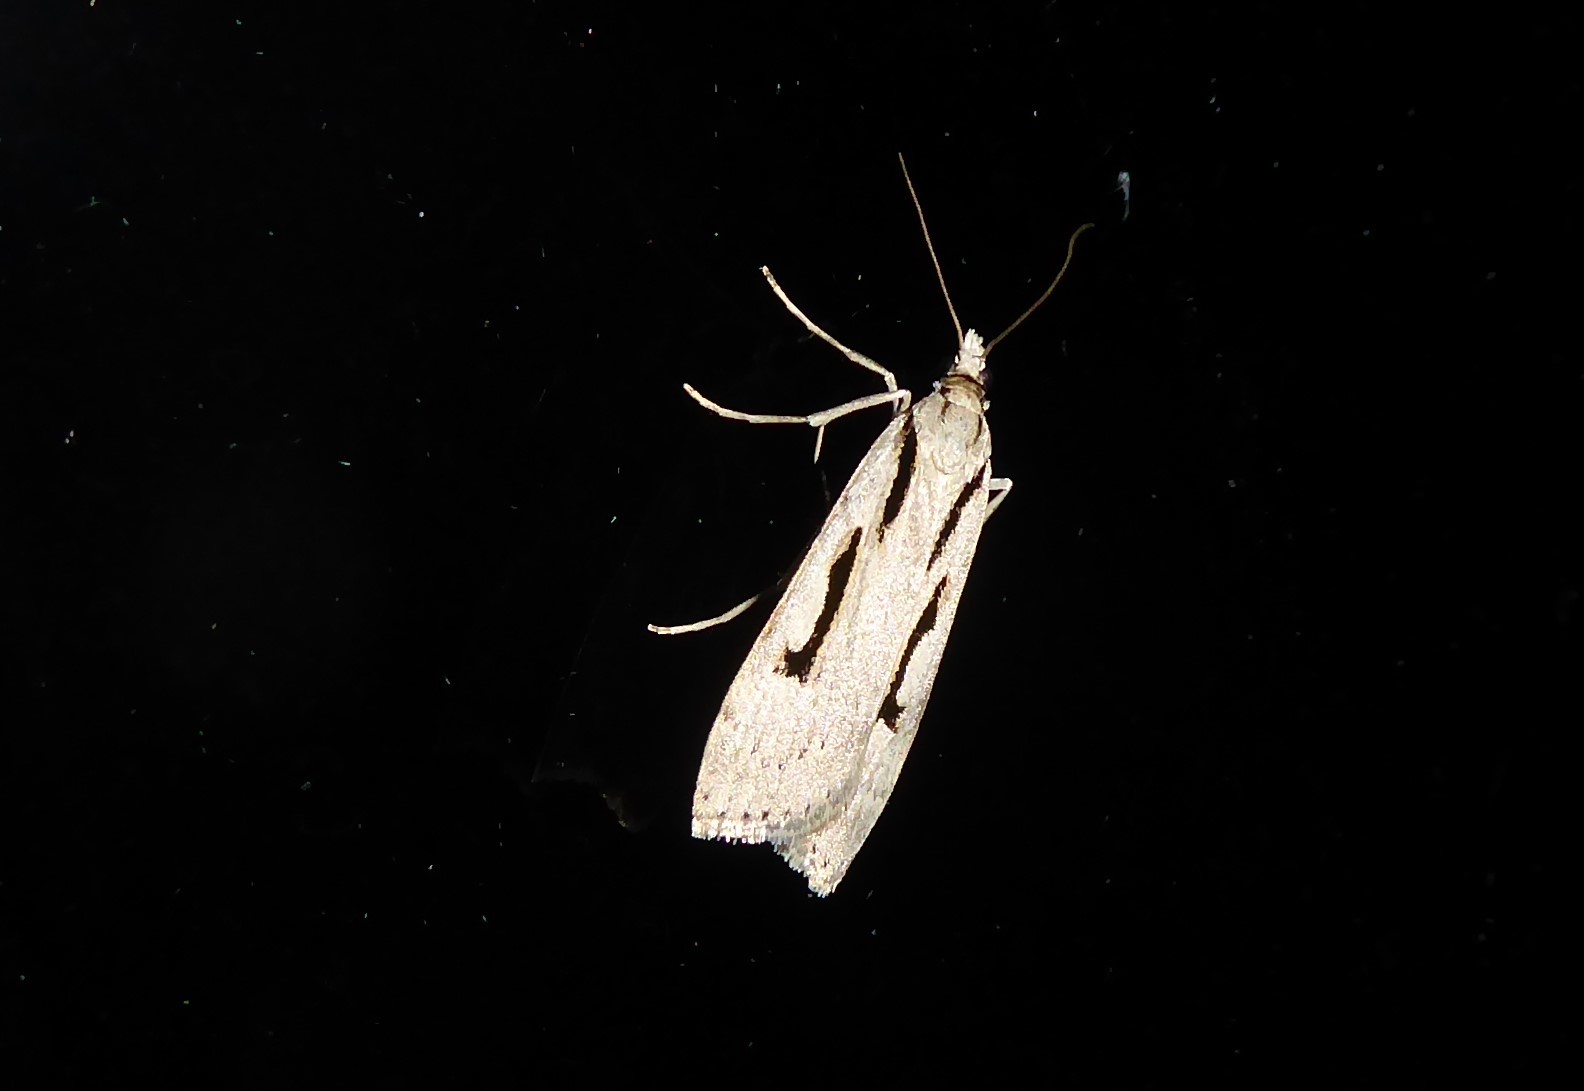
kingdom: Animalia
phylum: Arthropoda
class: Insecta
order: Lepidoptera
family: Crambidae
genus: Scoparia
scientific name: Scoparia rotuellus
